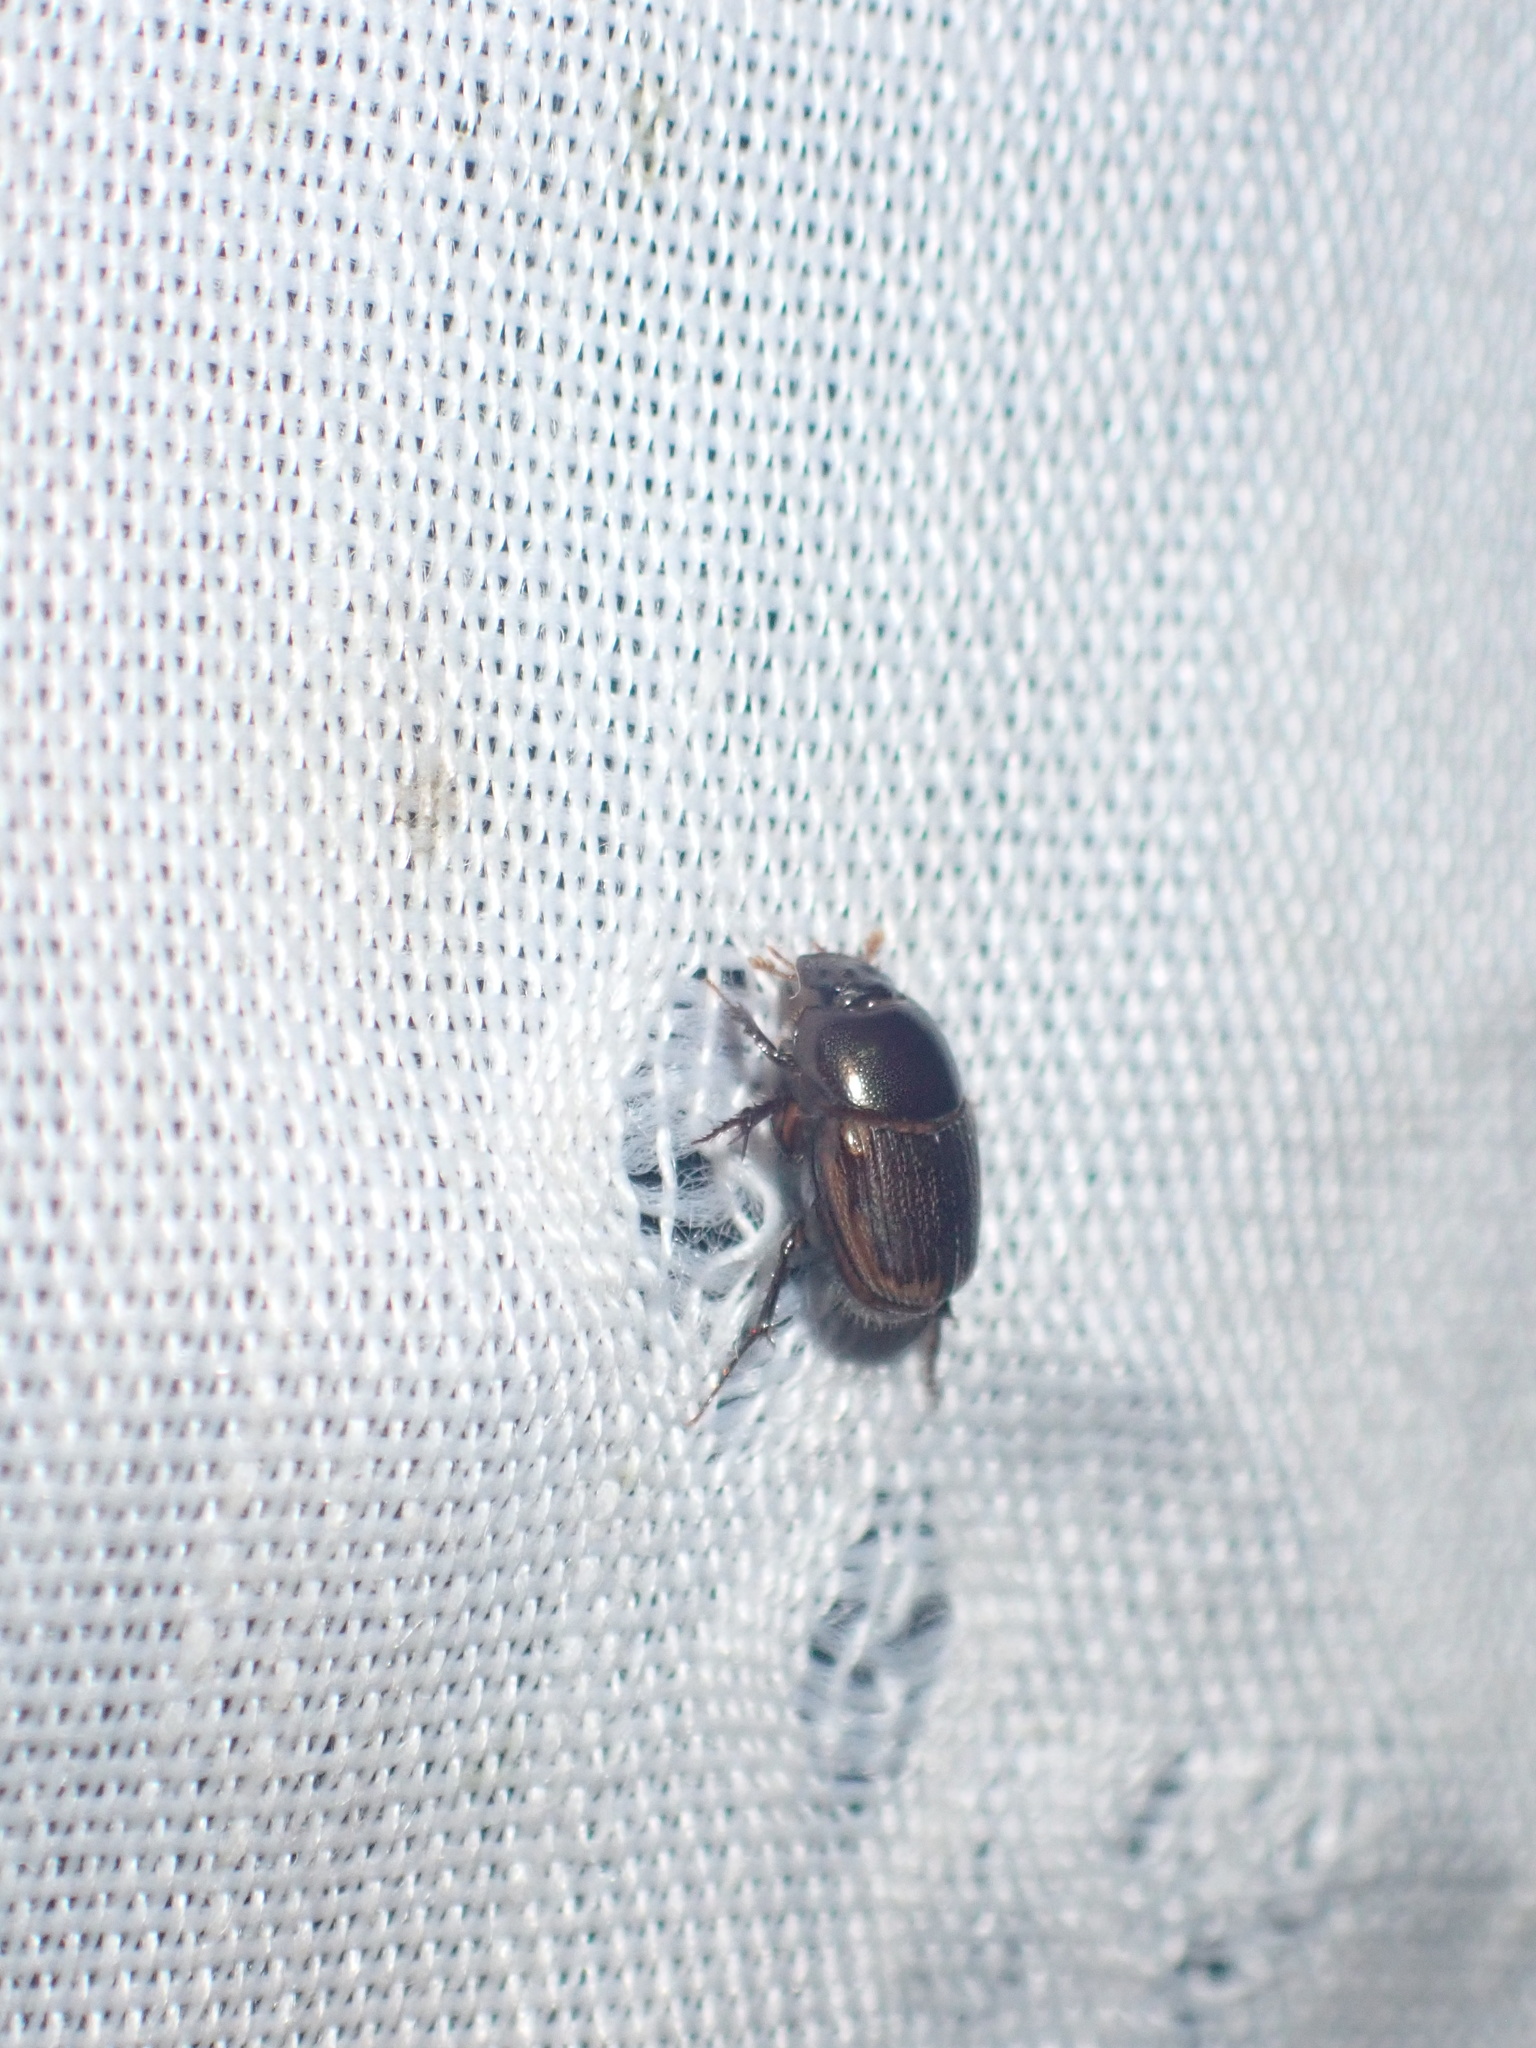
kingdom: Animalia
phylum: Arthropoda
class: Insecta
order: Coleoptera
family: Scarabaeidae
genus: Onthophagus
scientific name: Onthophagus vinctus
